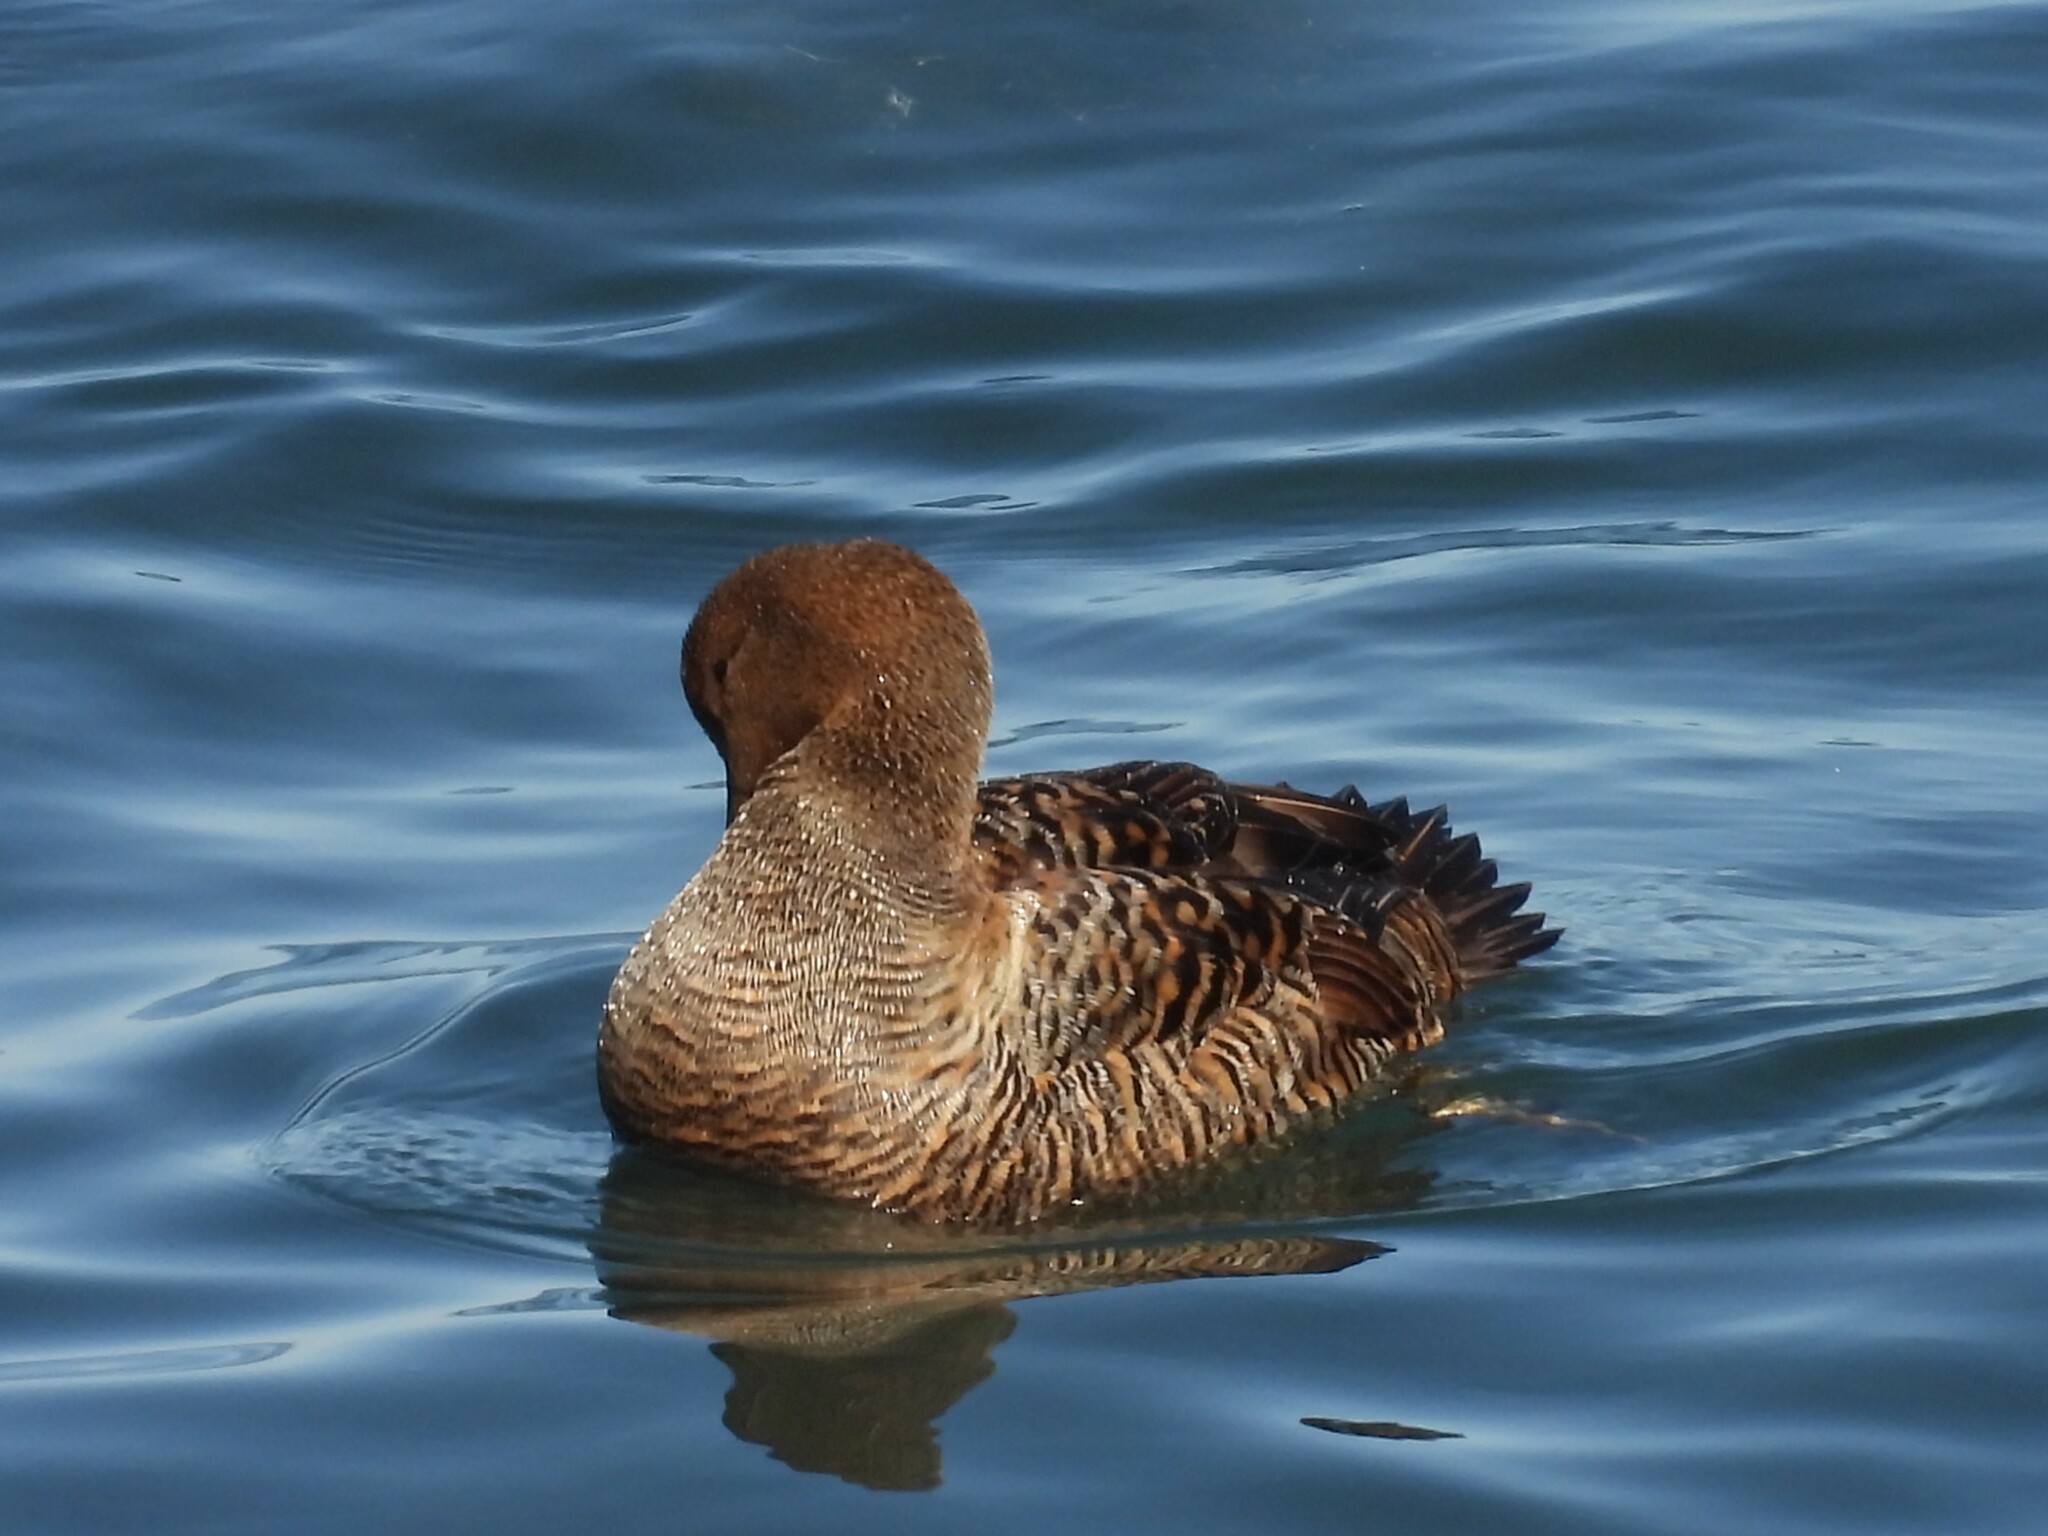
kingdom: Animalia
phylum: Chordata
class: Aves
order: Anseriformes
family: Anatidae
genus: Somateria
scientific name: Somateria mollissima
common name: Common eider
